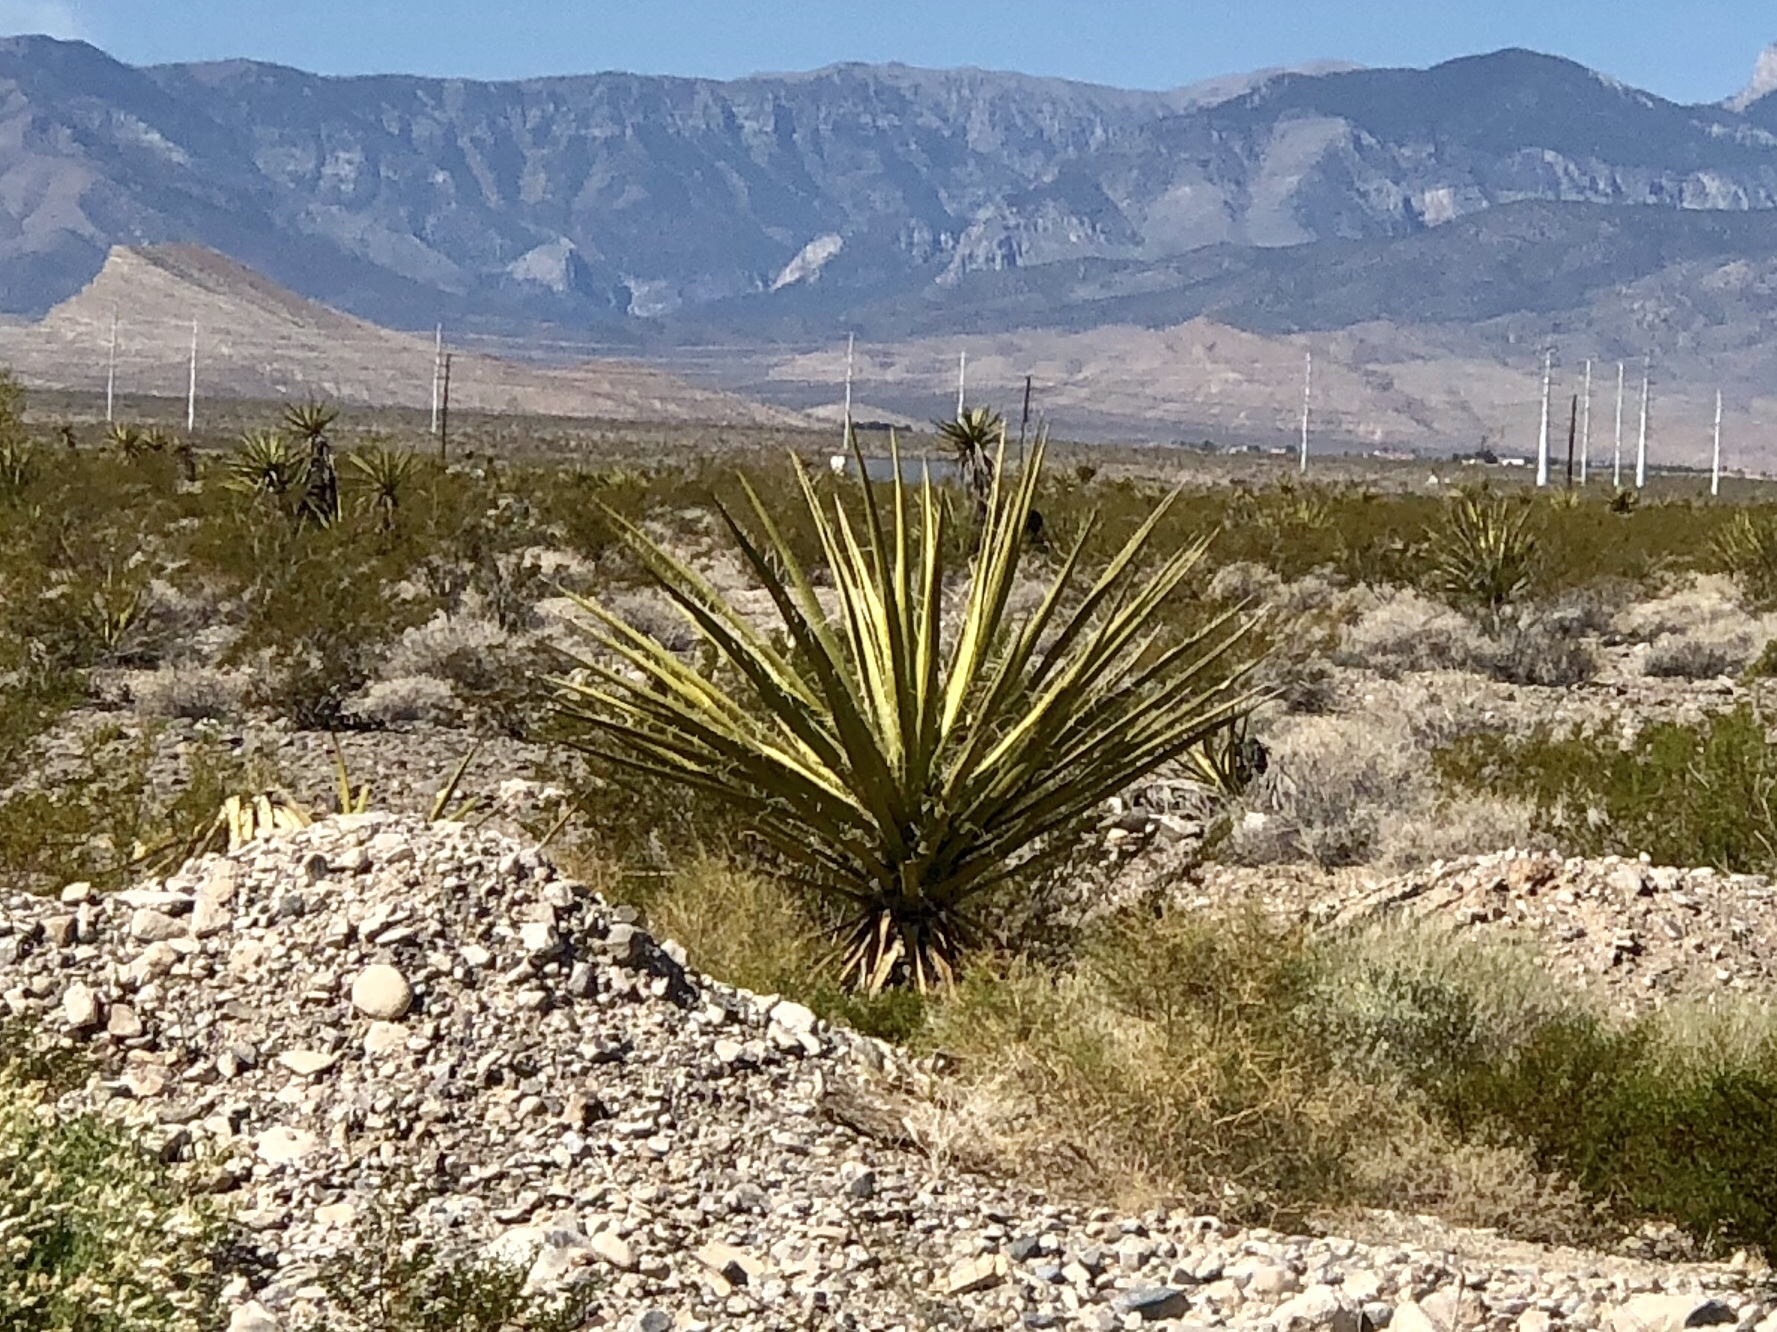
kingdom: Plantae
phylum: Tracheophyta
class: Liliopsida
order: Asparagales
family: Asparagaceae
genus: Yucca
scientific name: Yucca schidigera
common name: Mojave yucca
